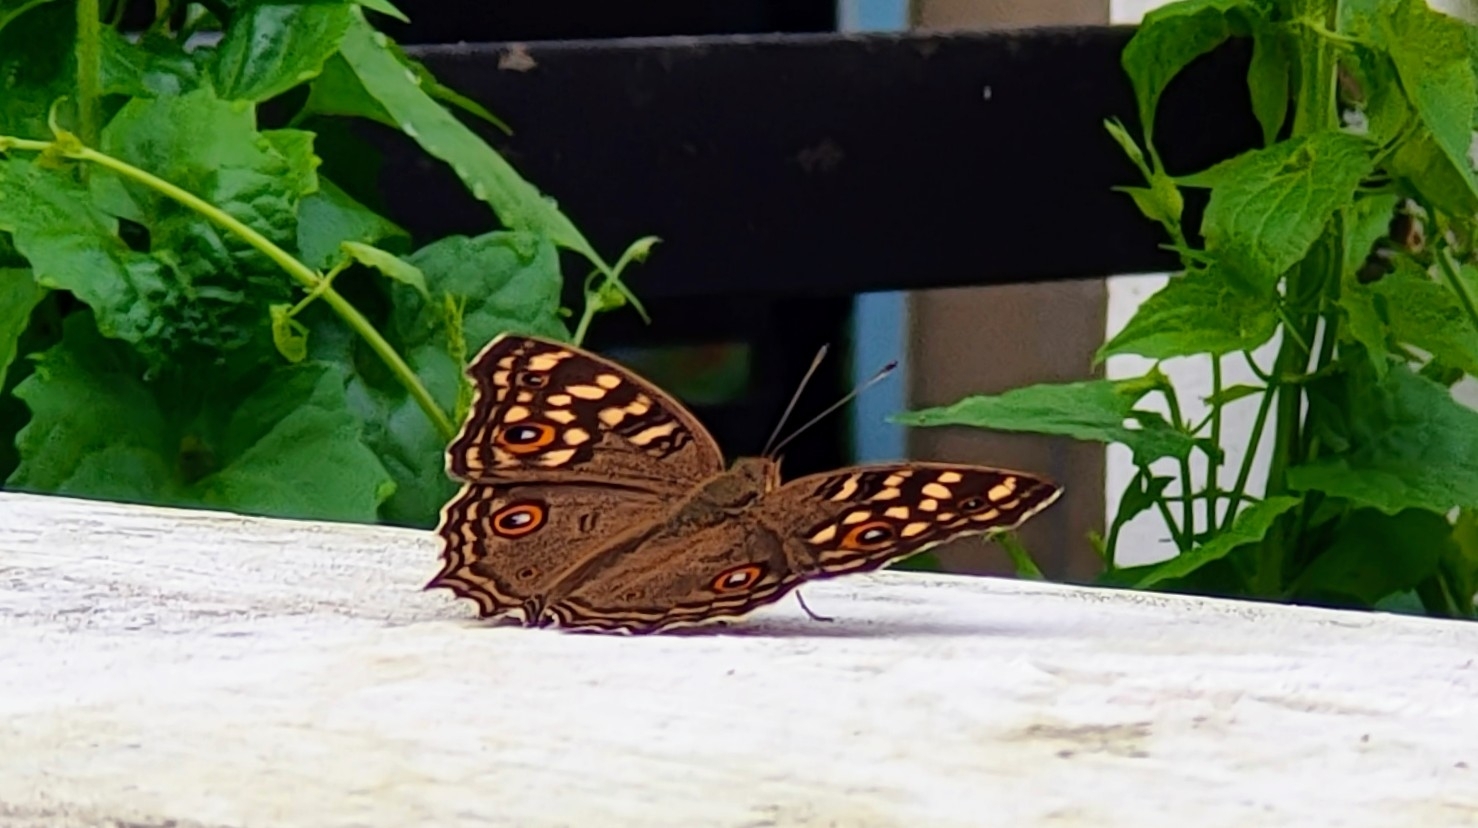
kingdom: Animalia
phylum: Arthropoda
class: Insecta
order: Lepidoptera
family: Nymphalidae
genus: Junonia
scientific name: Junonia lemonias
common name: Lemon pansy
